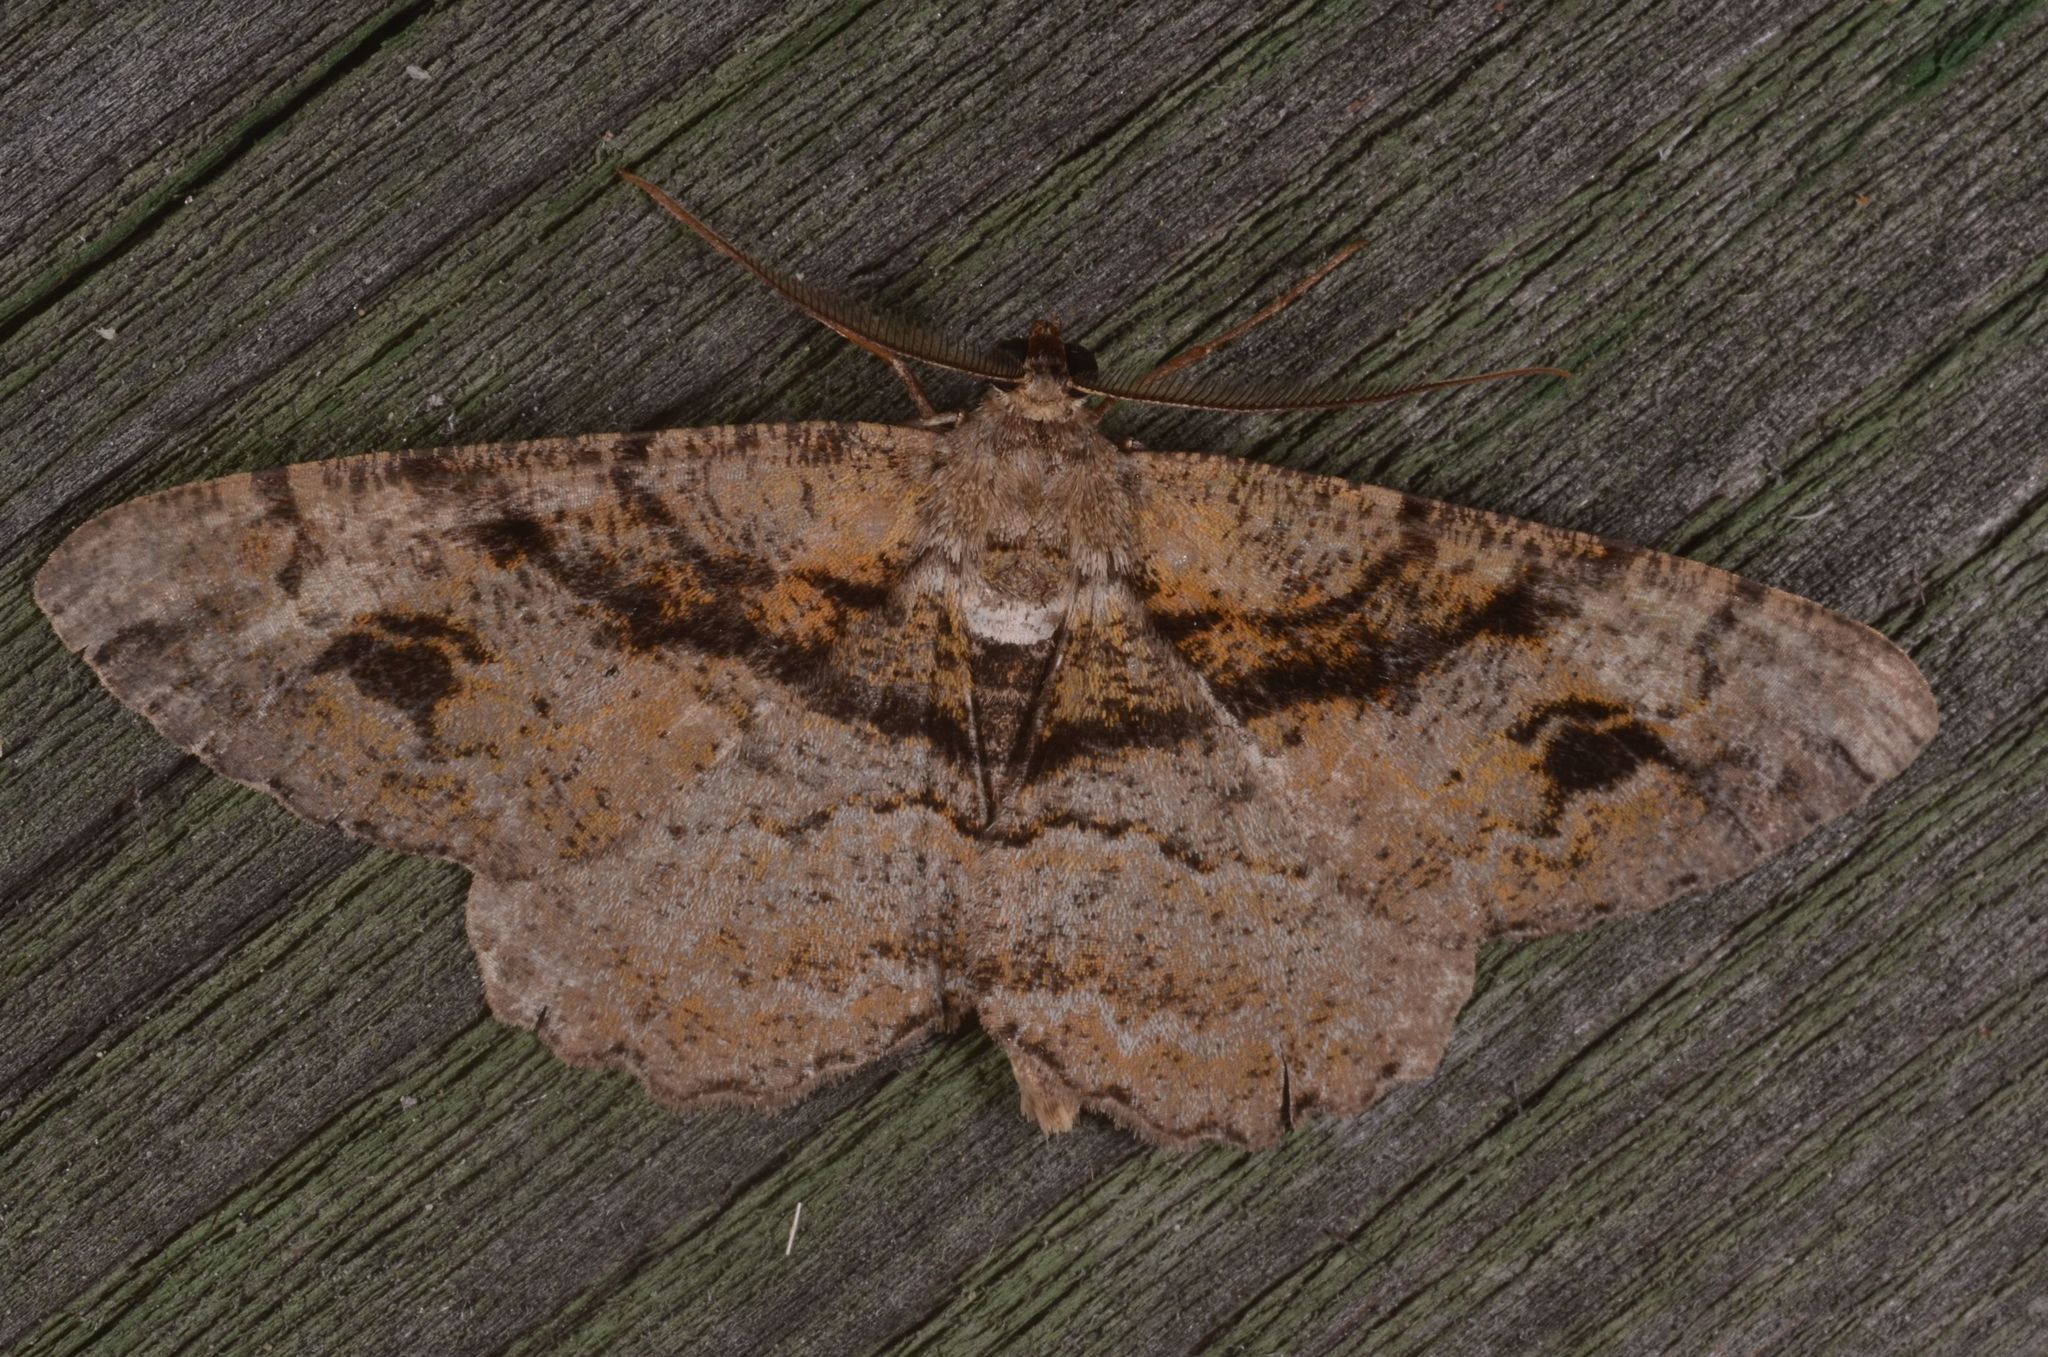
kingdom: Animalia
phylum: Arthropoda
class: Insecta
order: Lepidoptera
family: Geometridae
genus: Alcis
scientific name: Alcis deversata
